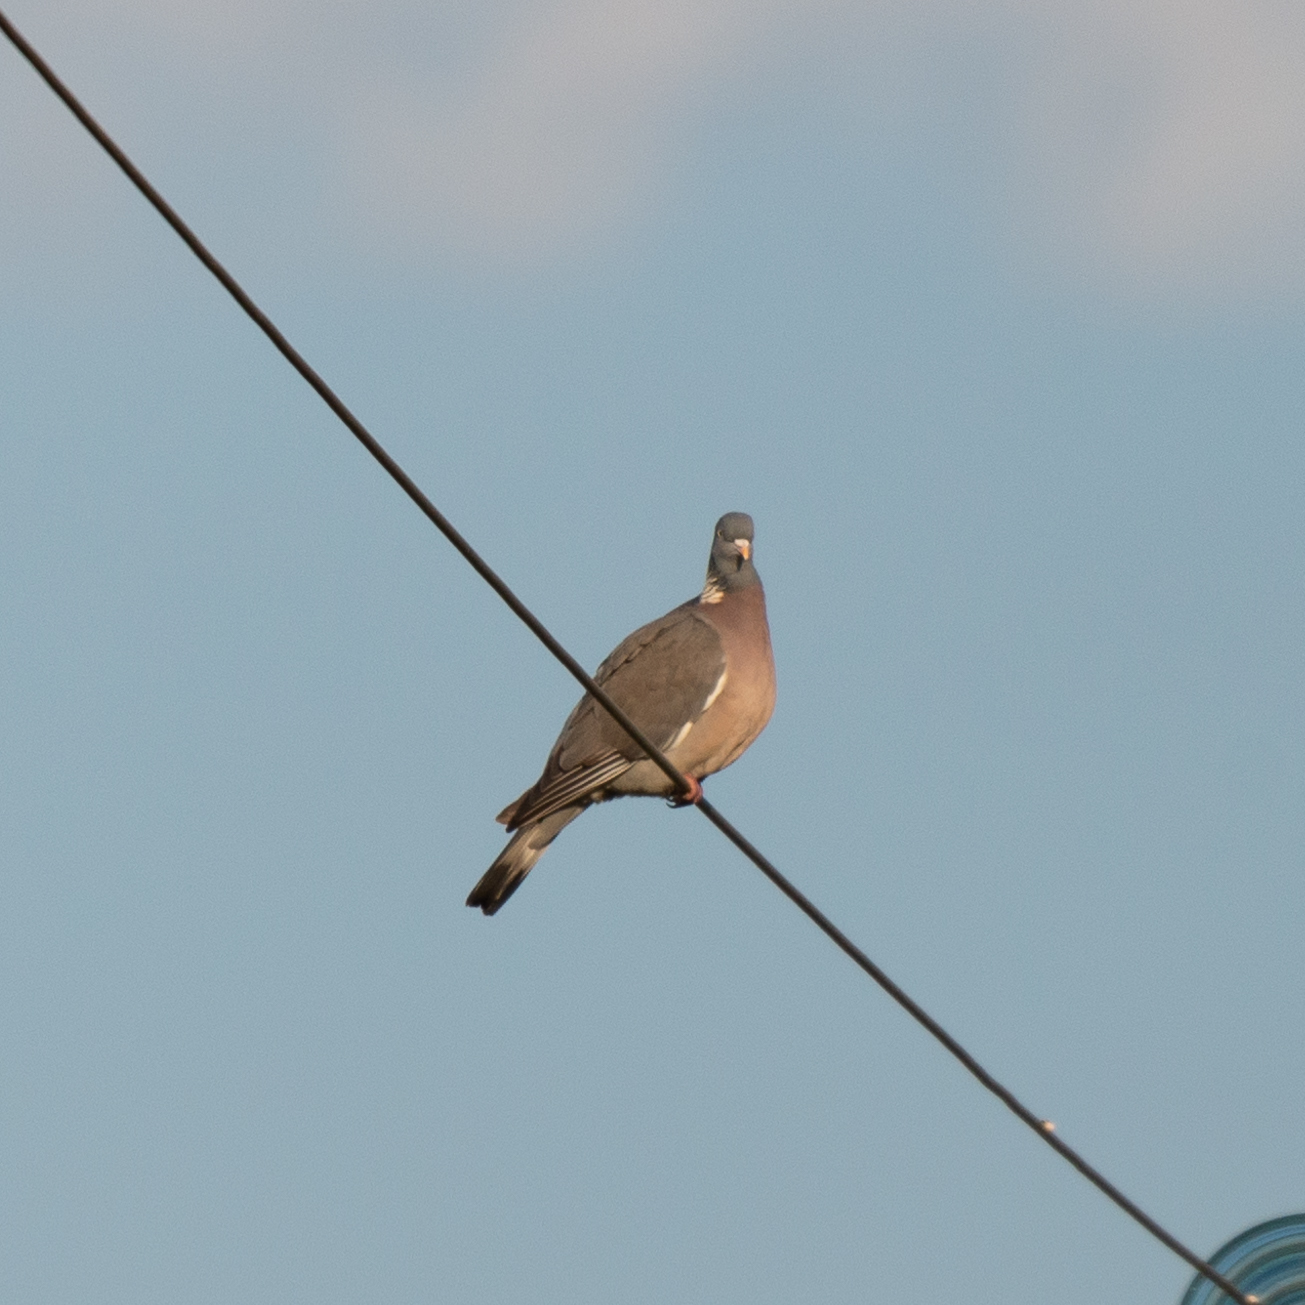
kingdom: Animalia
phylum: Chordata
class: Aves
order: Columbiformes
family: Columbidae
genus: Columba
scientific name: Columba palumbus
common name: Common wood pigeon
